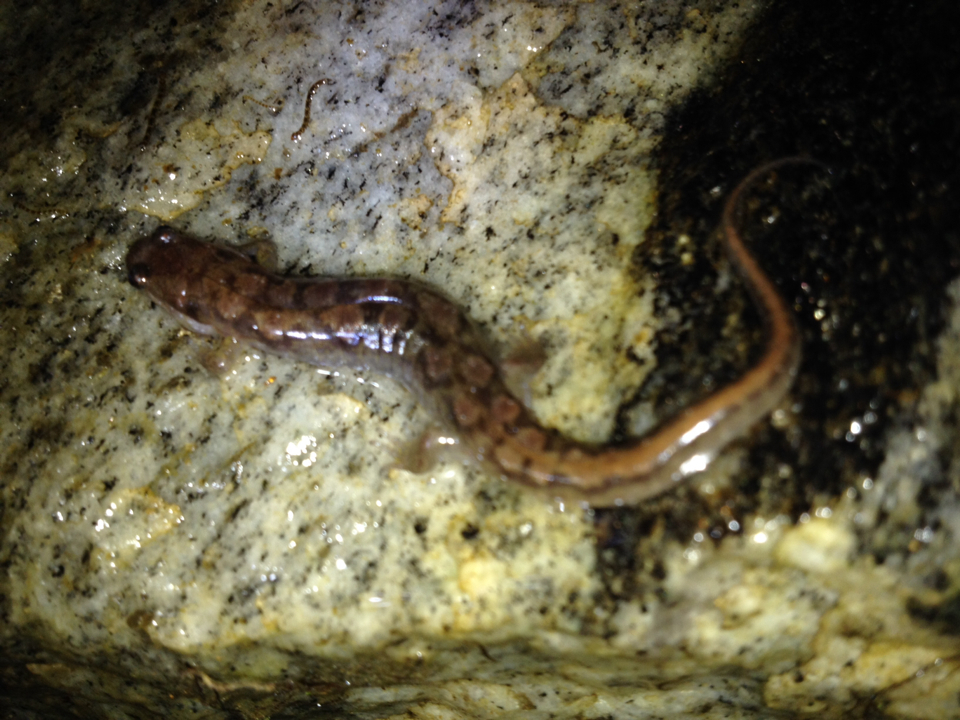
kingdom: Animalia
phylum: Chordata
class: Amphibia
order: Caudata
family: Plethodontidae
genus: Desmognathus
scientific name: Desmognathus ocoee
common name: Ocoee salamander
